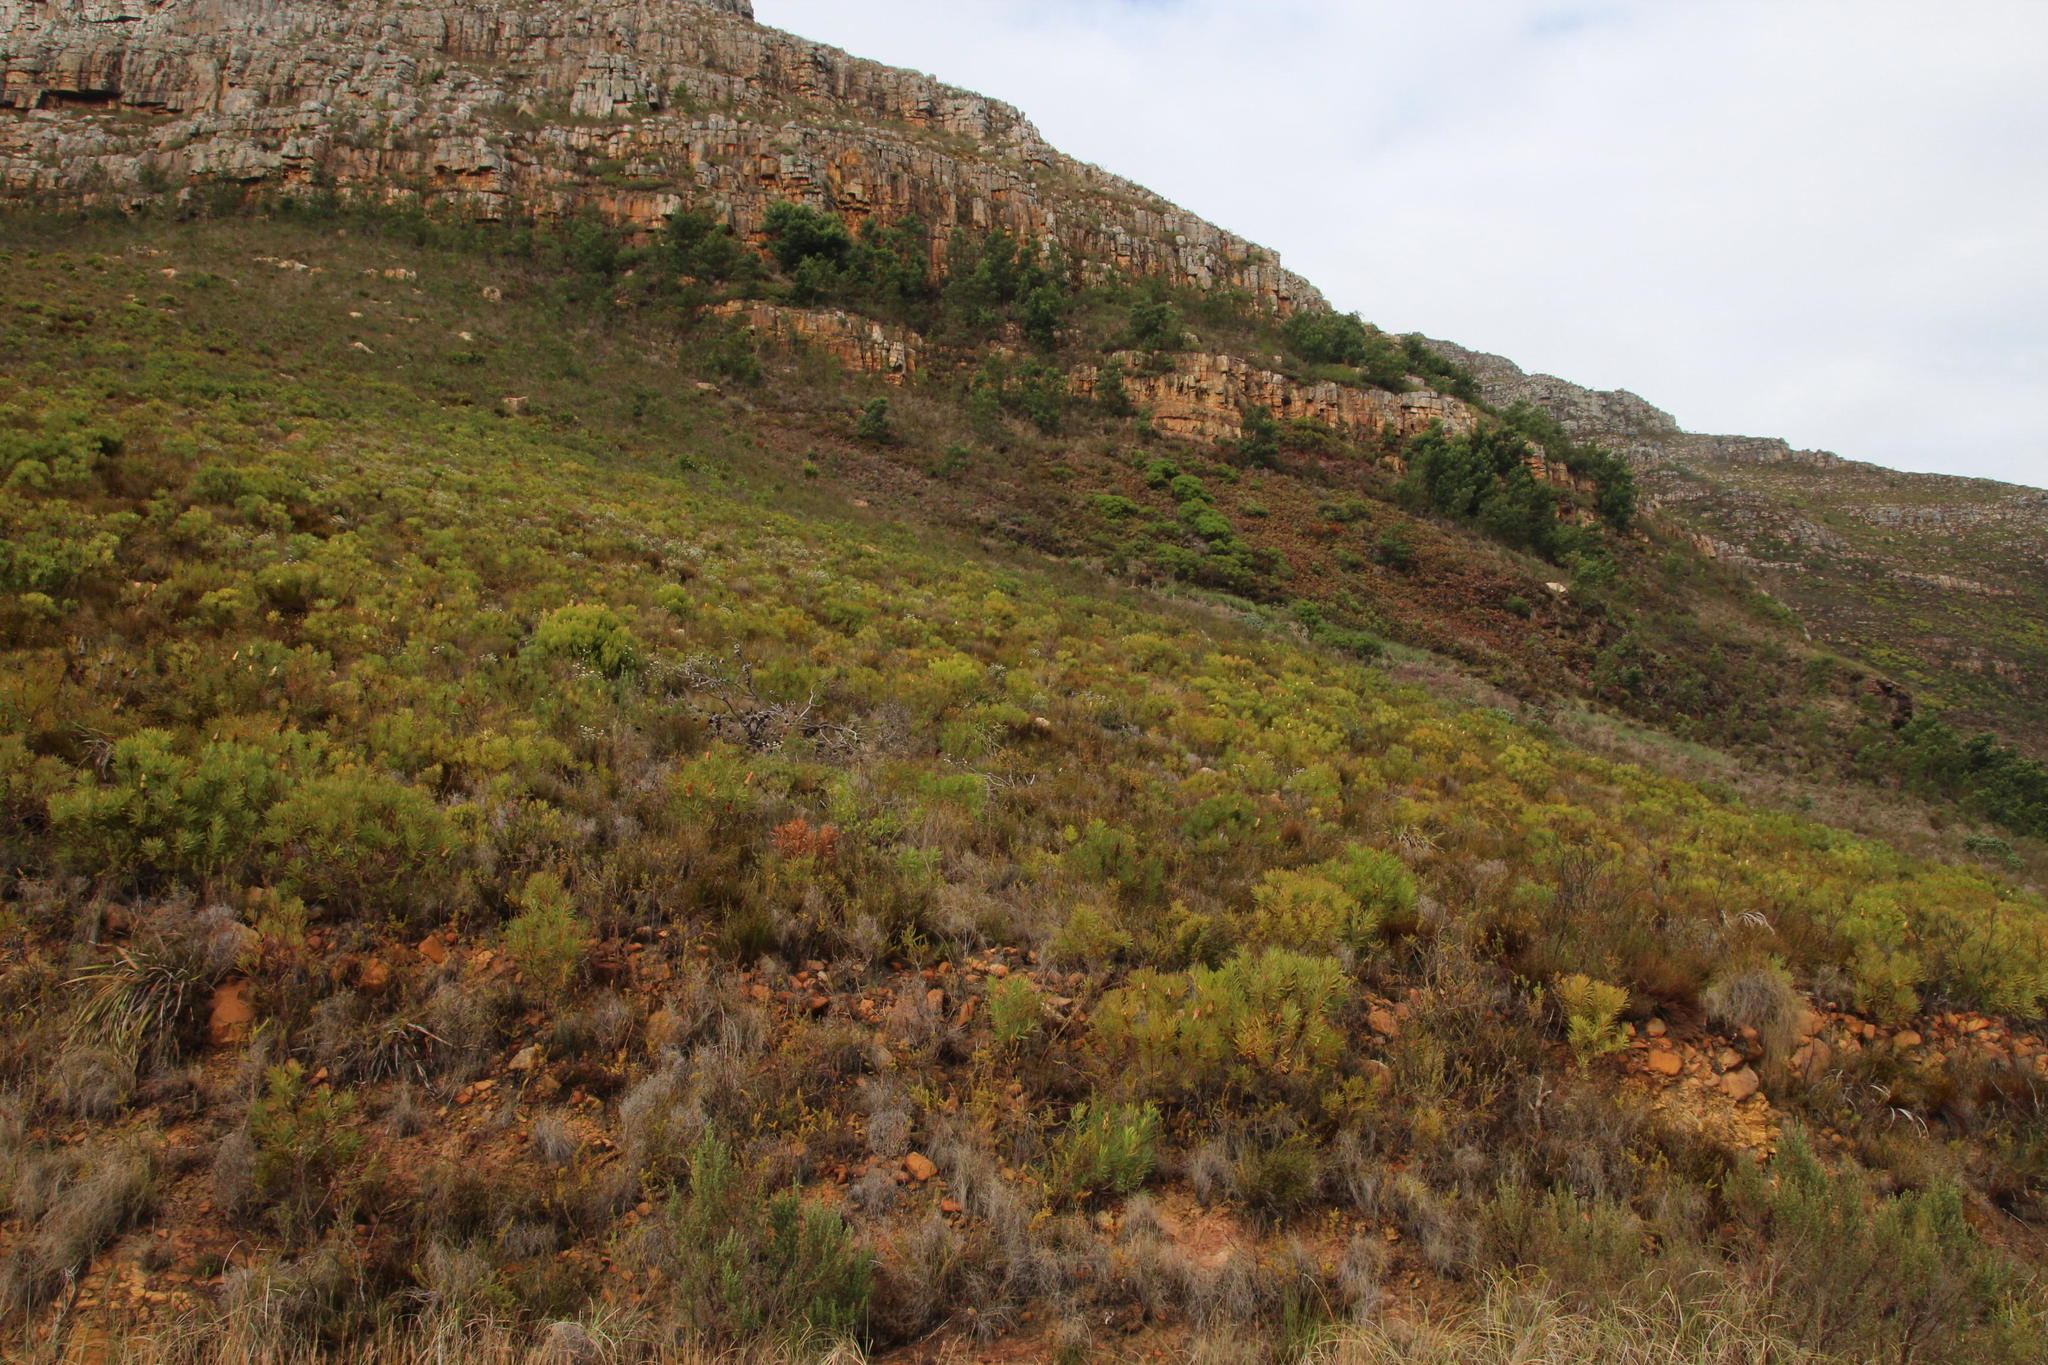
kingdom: Plantae
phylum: Tracheophyta
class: Magnoliopsida
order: Proteales
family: Proteaceae
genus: Protea
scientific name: Protea repens
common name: Sugarbush
